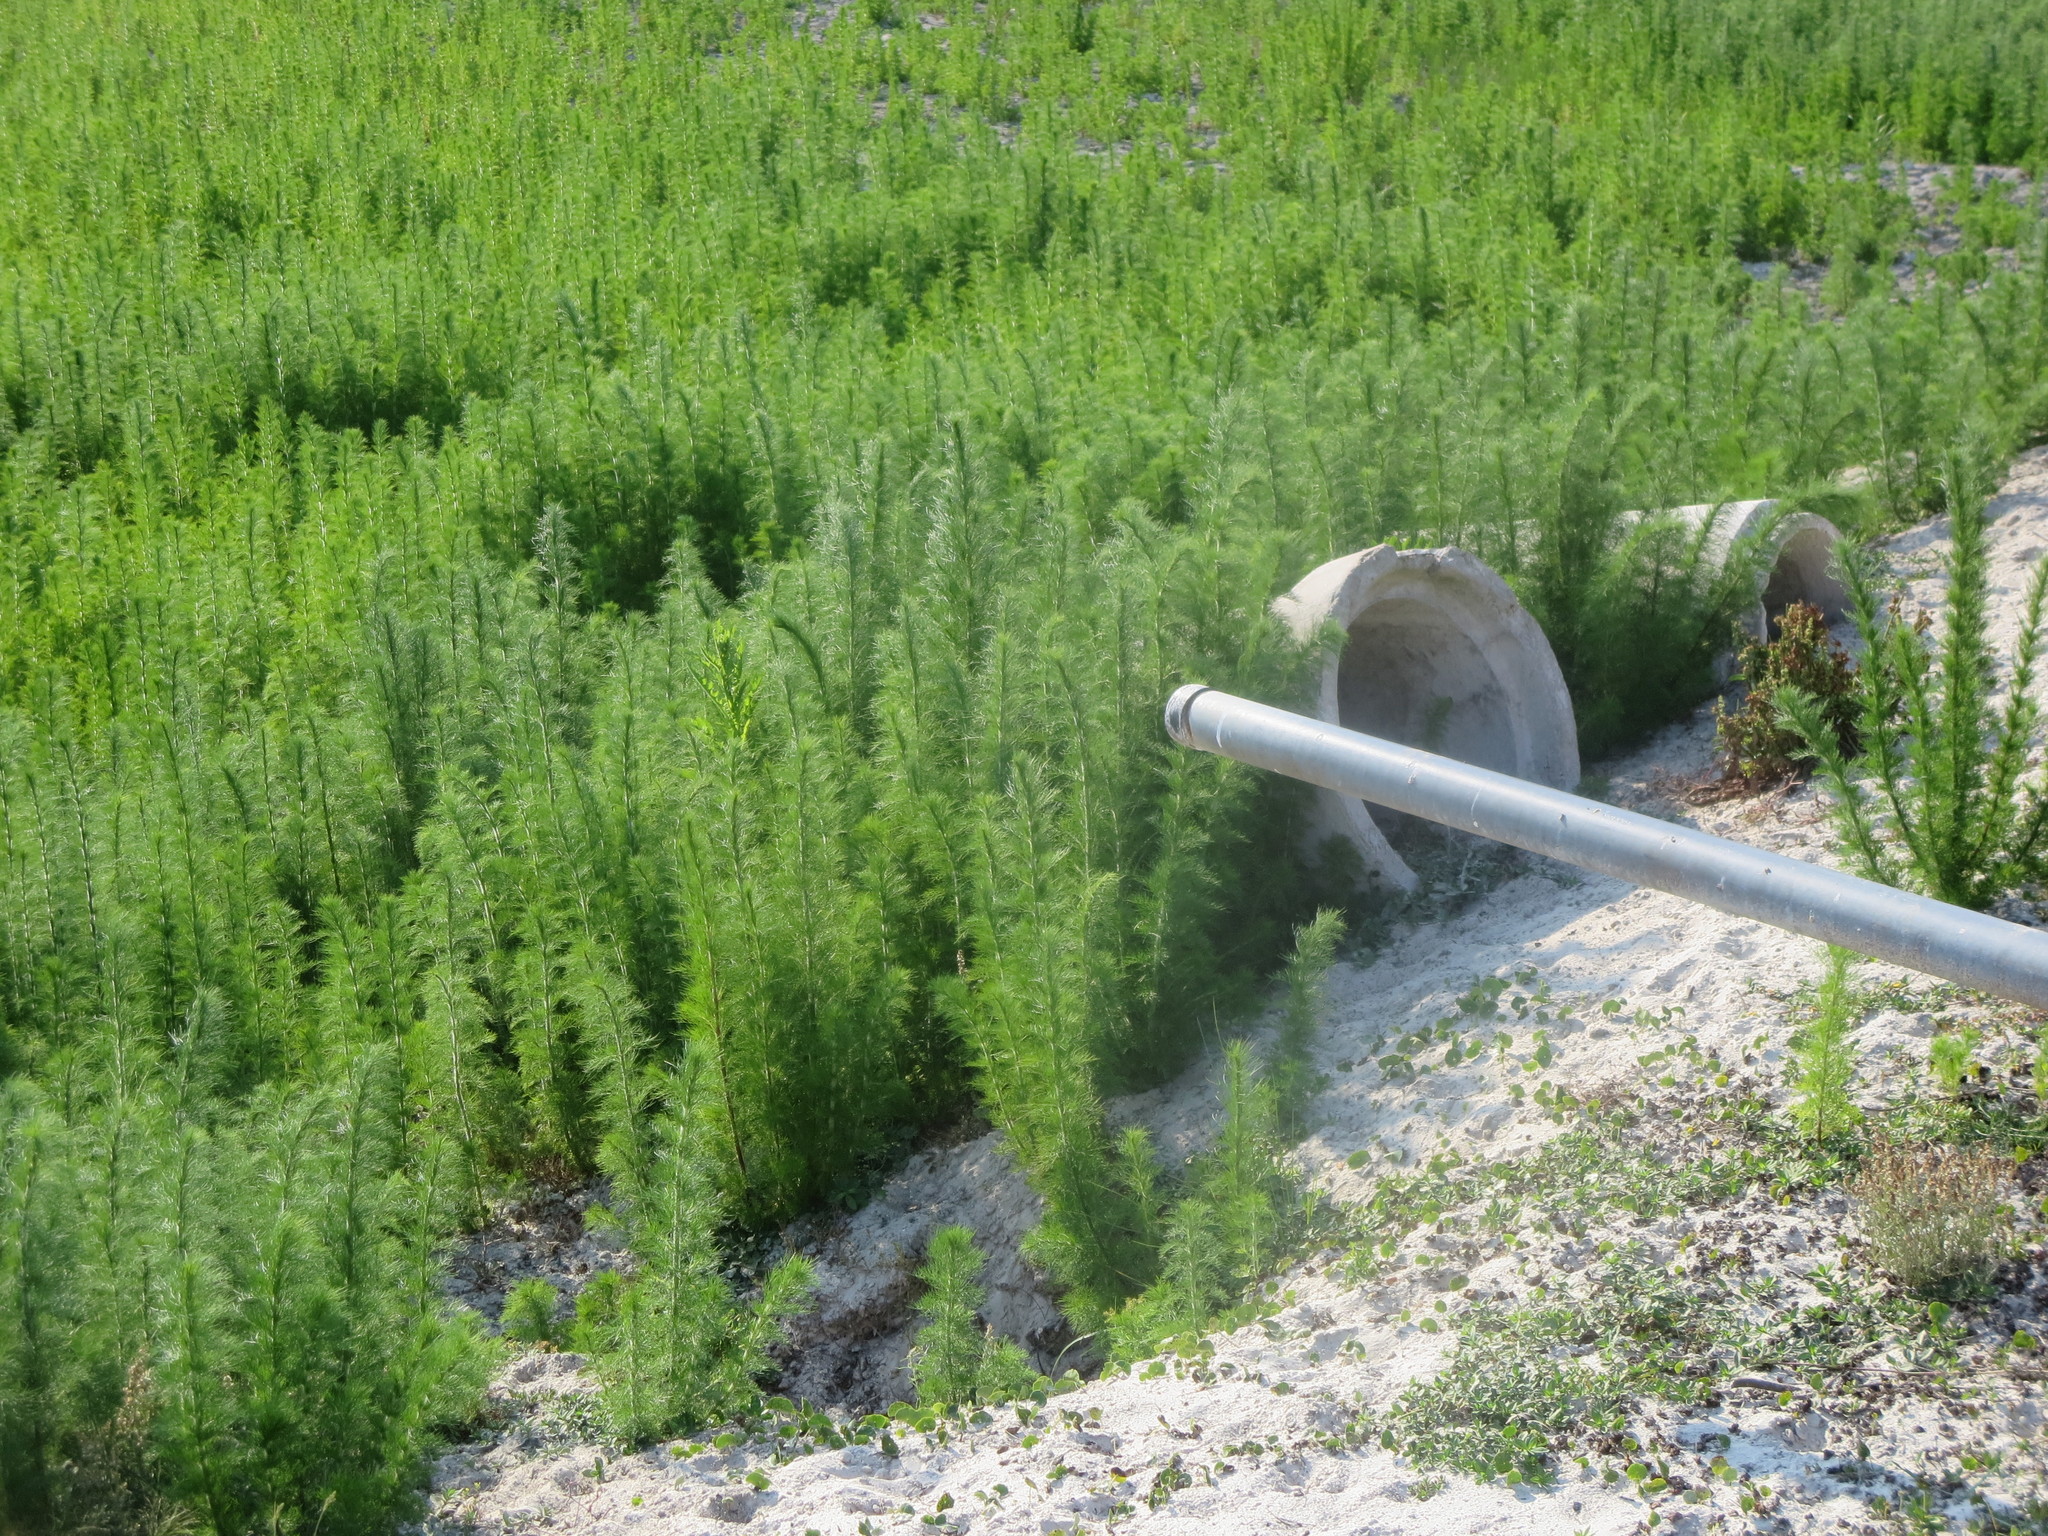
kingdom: Plantae
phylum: Tracheophyta
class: Magnoliopsida
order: Asterales
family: Asteraceae
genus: Eupatorium
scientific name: Eupatorium capillifolium
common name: Dog-fennel
